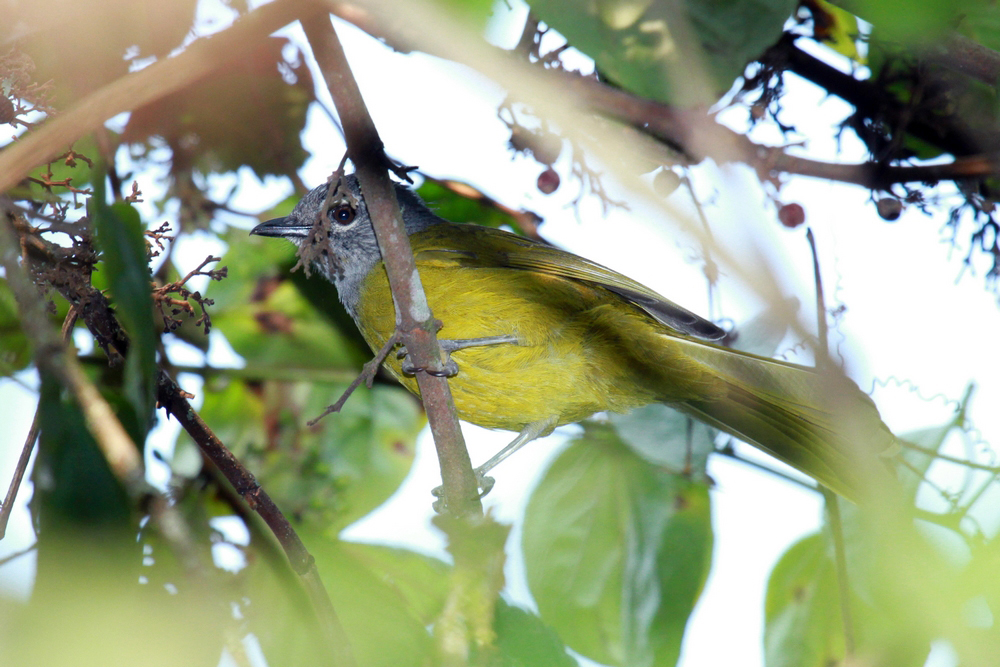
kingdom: Animalia
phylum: Chordata
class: Aves
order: Passeriformes
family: Pycnonotidae
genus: Arizelocichla
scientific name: Arizelocichla nigriceps
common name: Mountain greenbul
